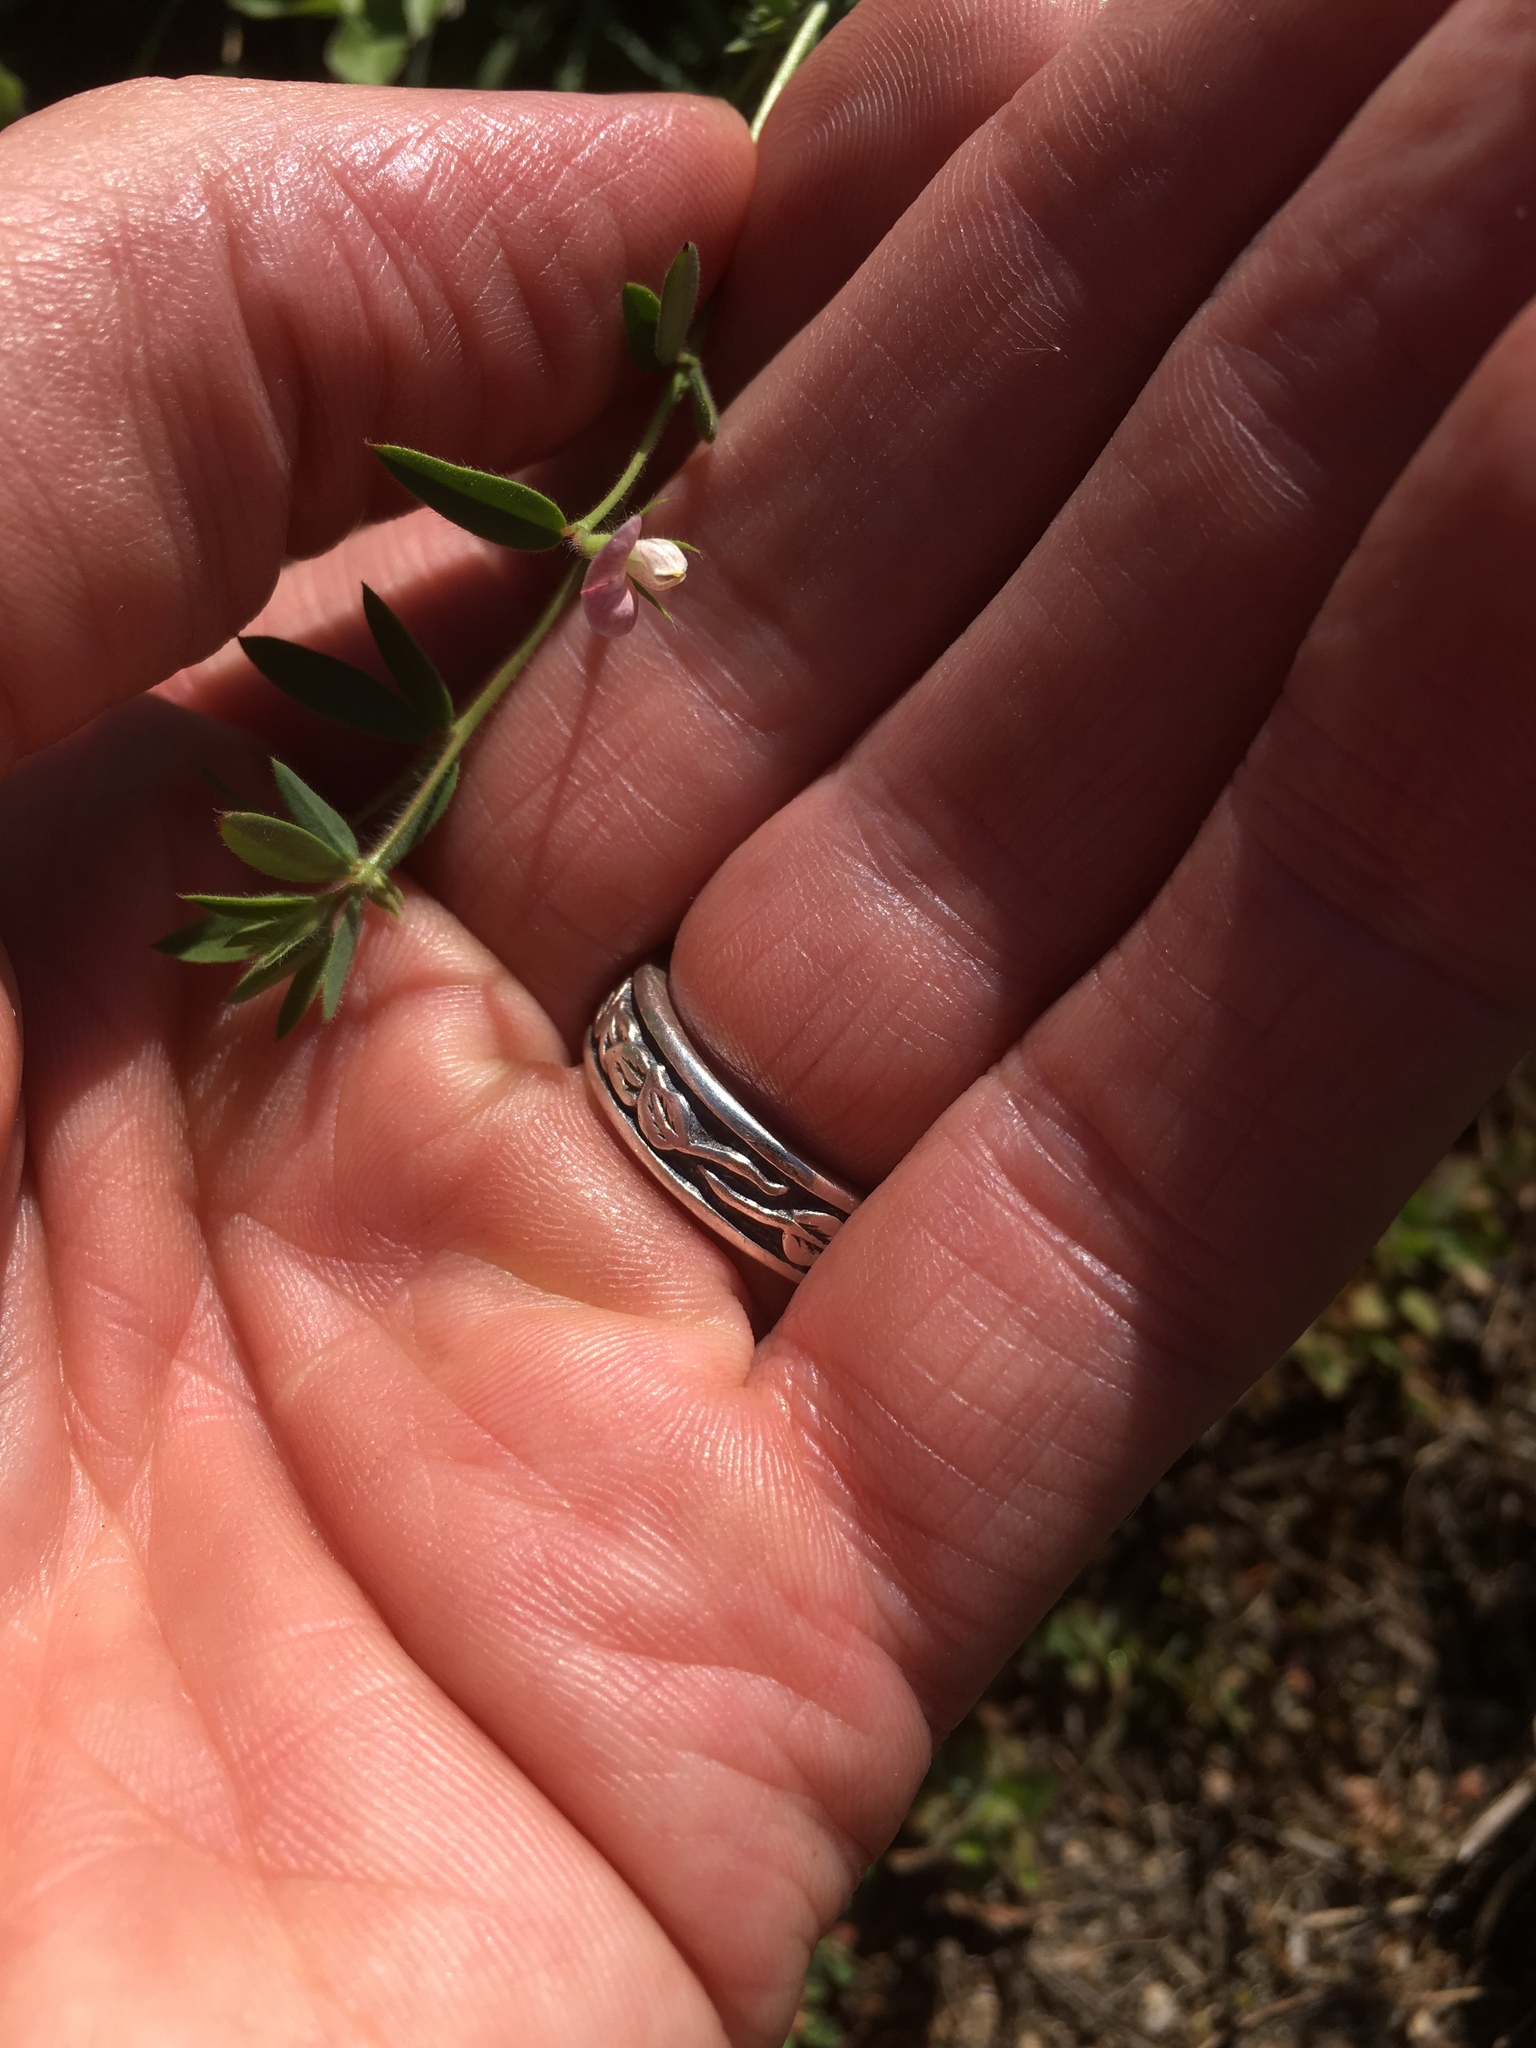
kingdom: Plantae
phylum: Tracheophyta
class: Magnoliopsida
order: Fabales
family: Fabaceae
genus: Acmispon
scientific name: Acmispon americanus
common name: American bird's-foot trefoil
